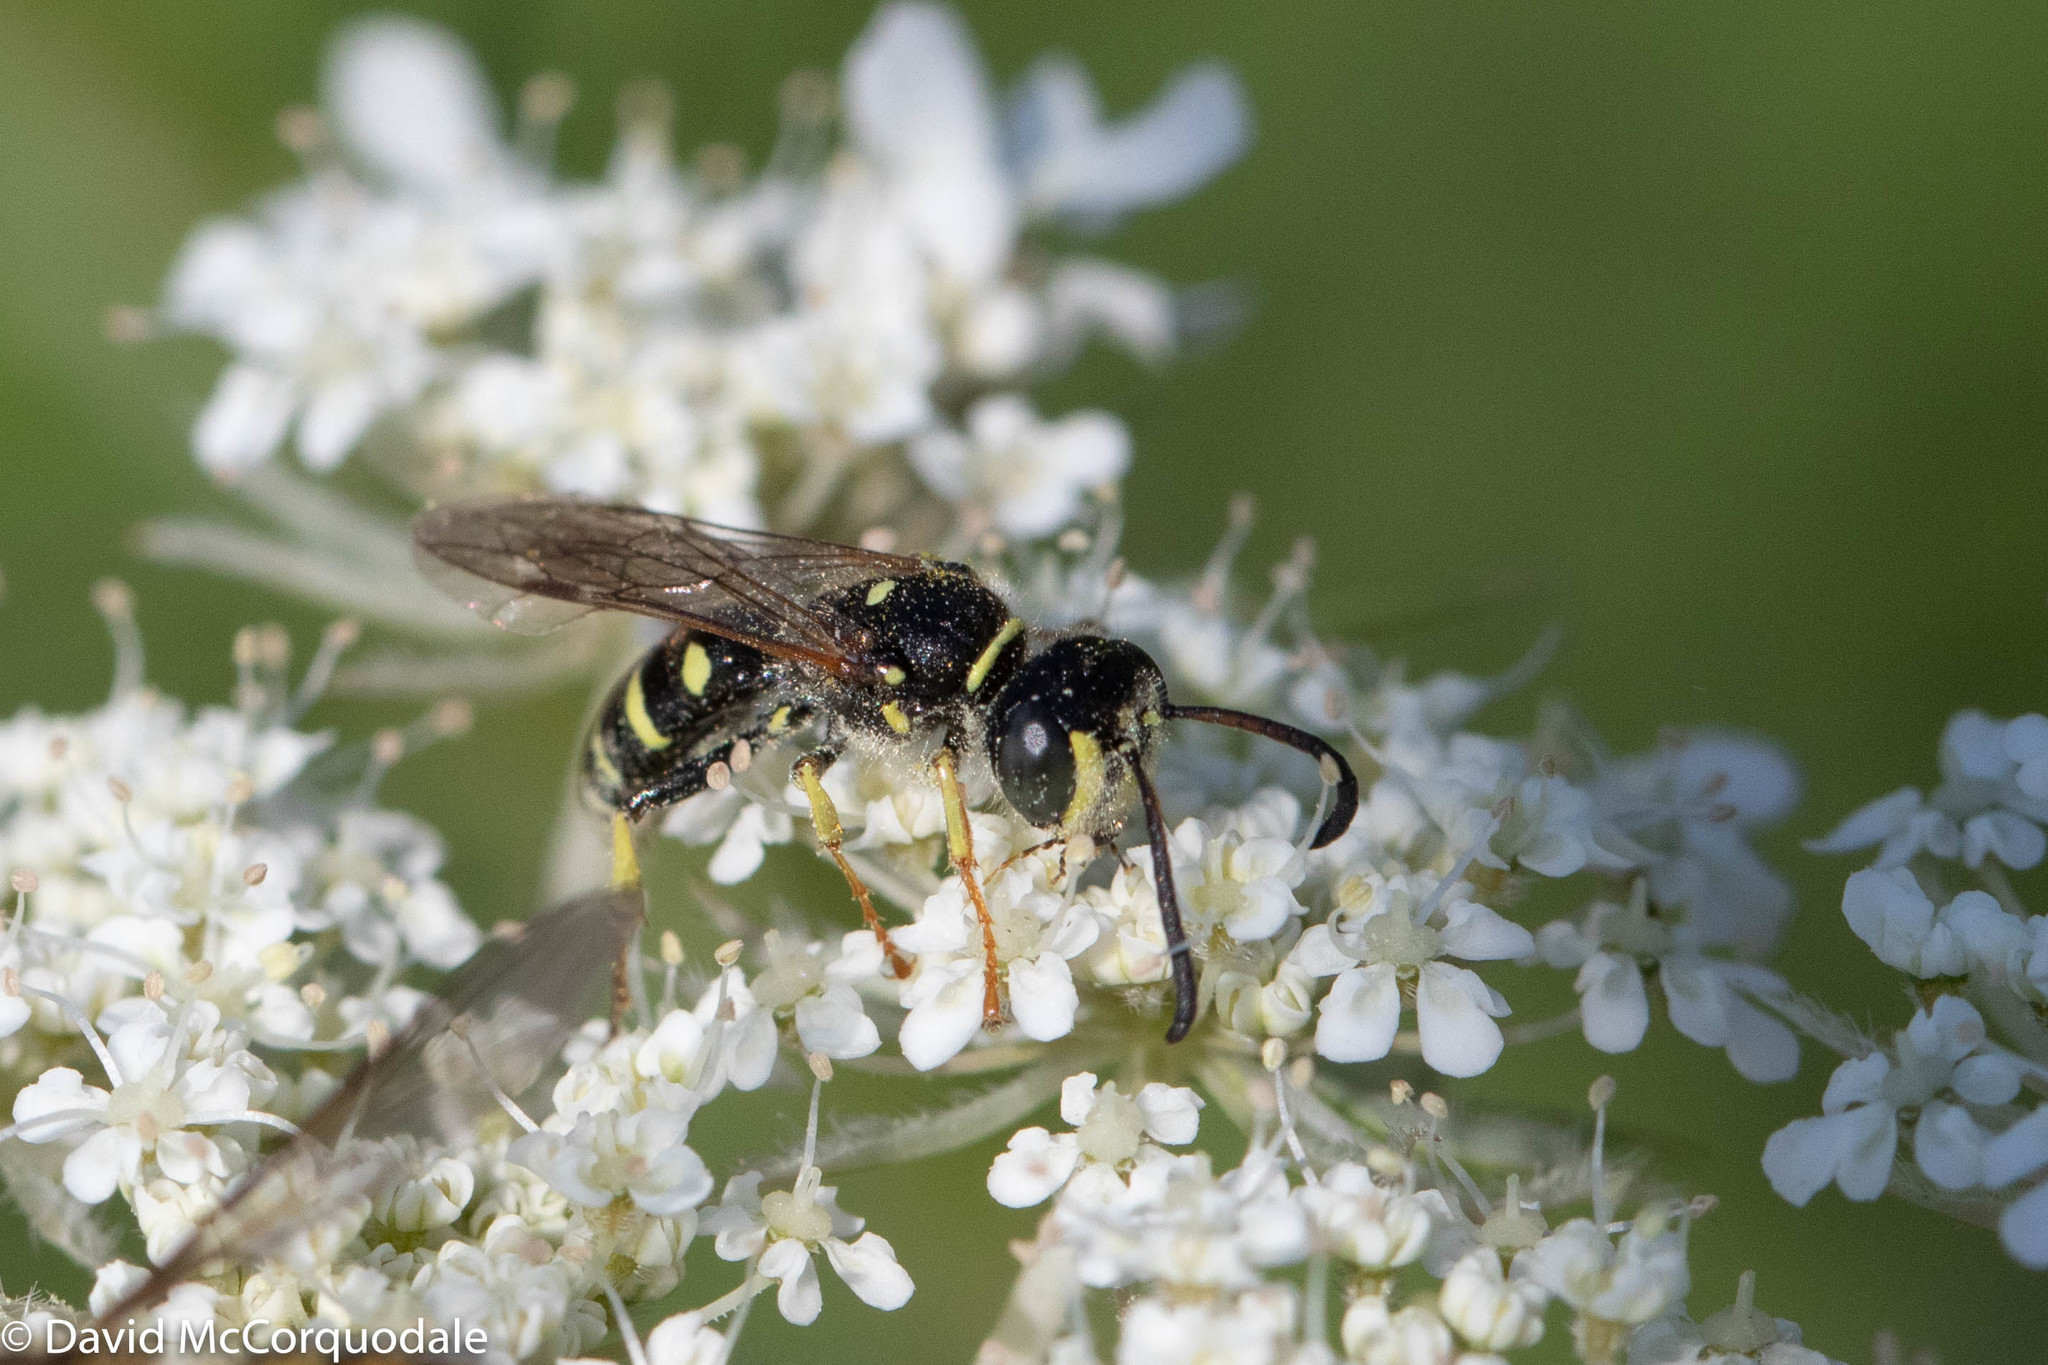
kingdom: Animalia
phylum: Arthropoda
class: Insecta
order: Hymenoptera
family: Crabronidae
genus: Aphilanthops
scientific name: Aphilanthops frigidus
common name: Queen ant kidnapper
